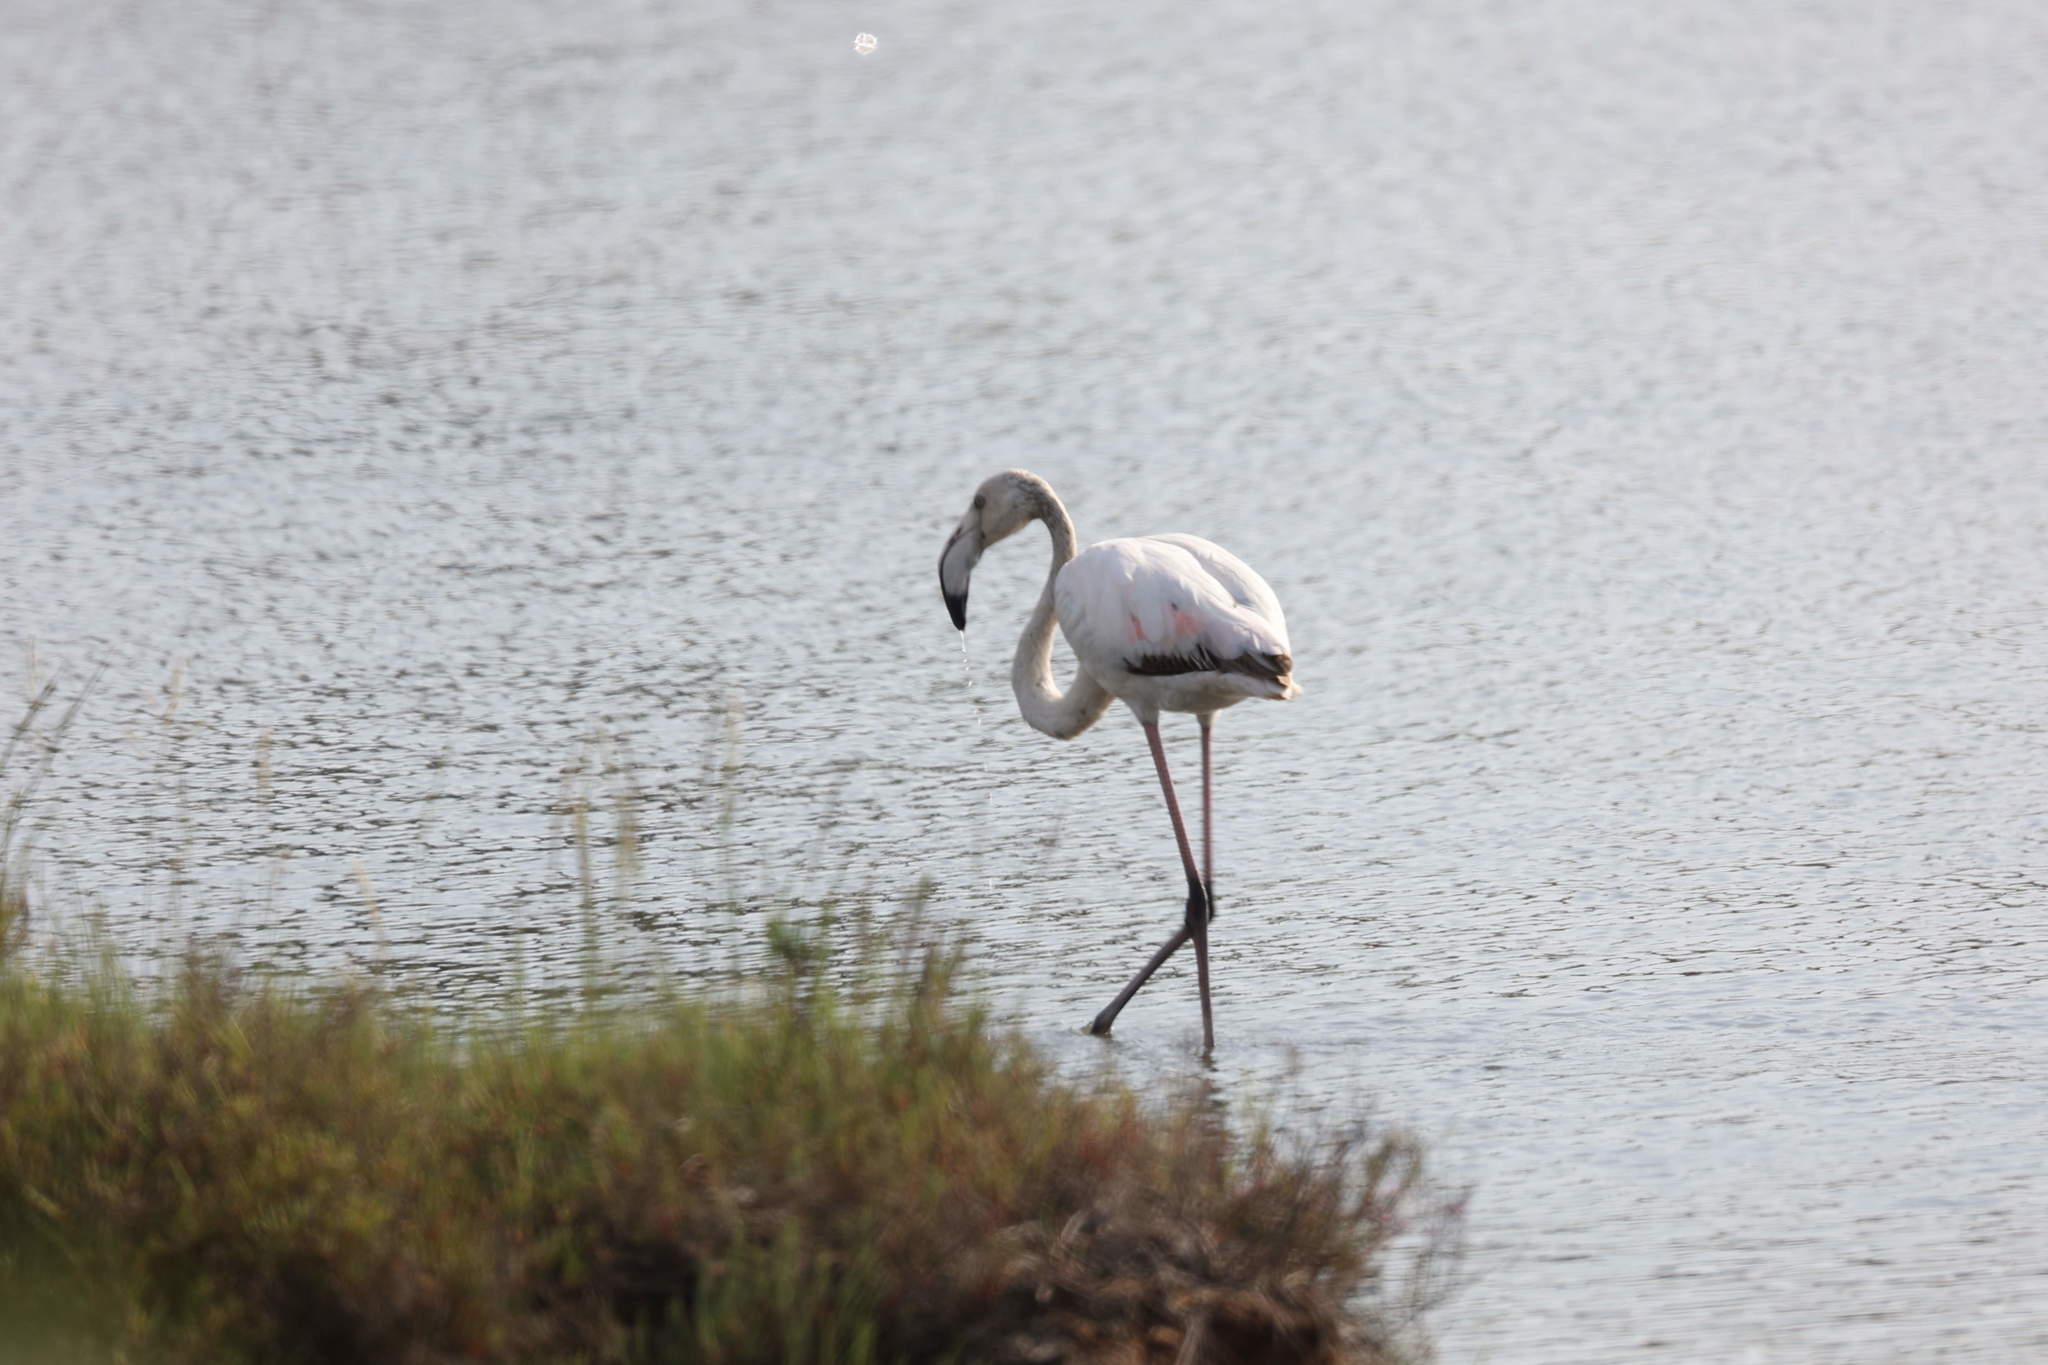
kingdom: Animalia
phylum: Chordata
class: Aves
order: Phoenicopteriformes
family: Phoenicopteridae
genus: Phoenicopterus
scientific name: Phoenicopterus roseus
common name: Greater flamingo
